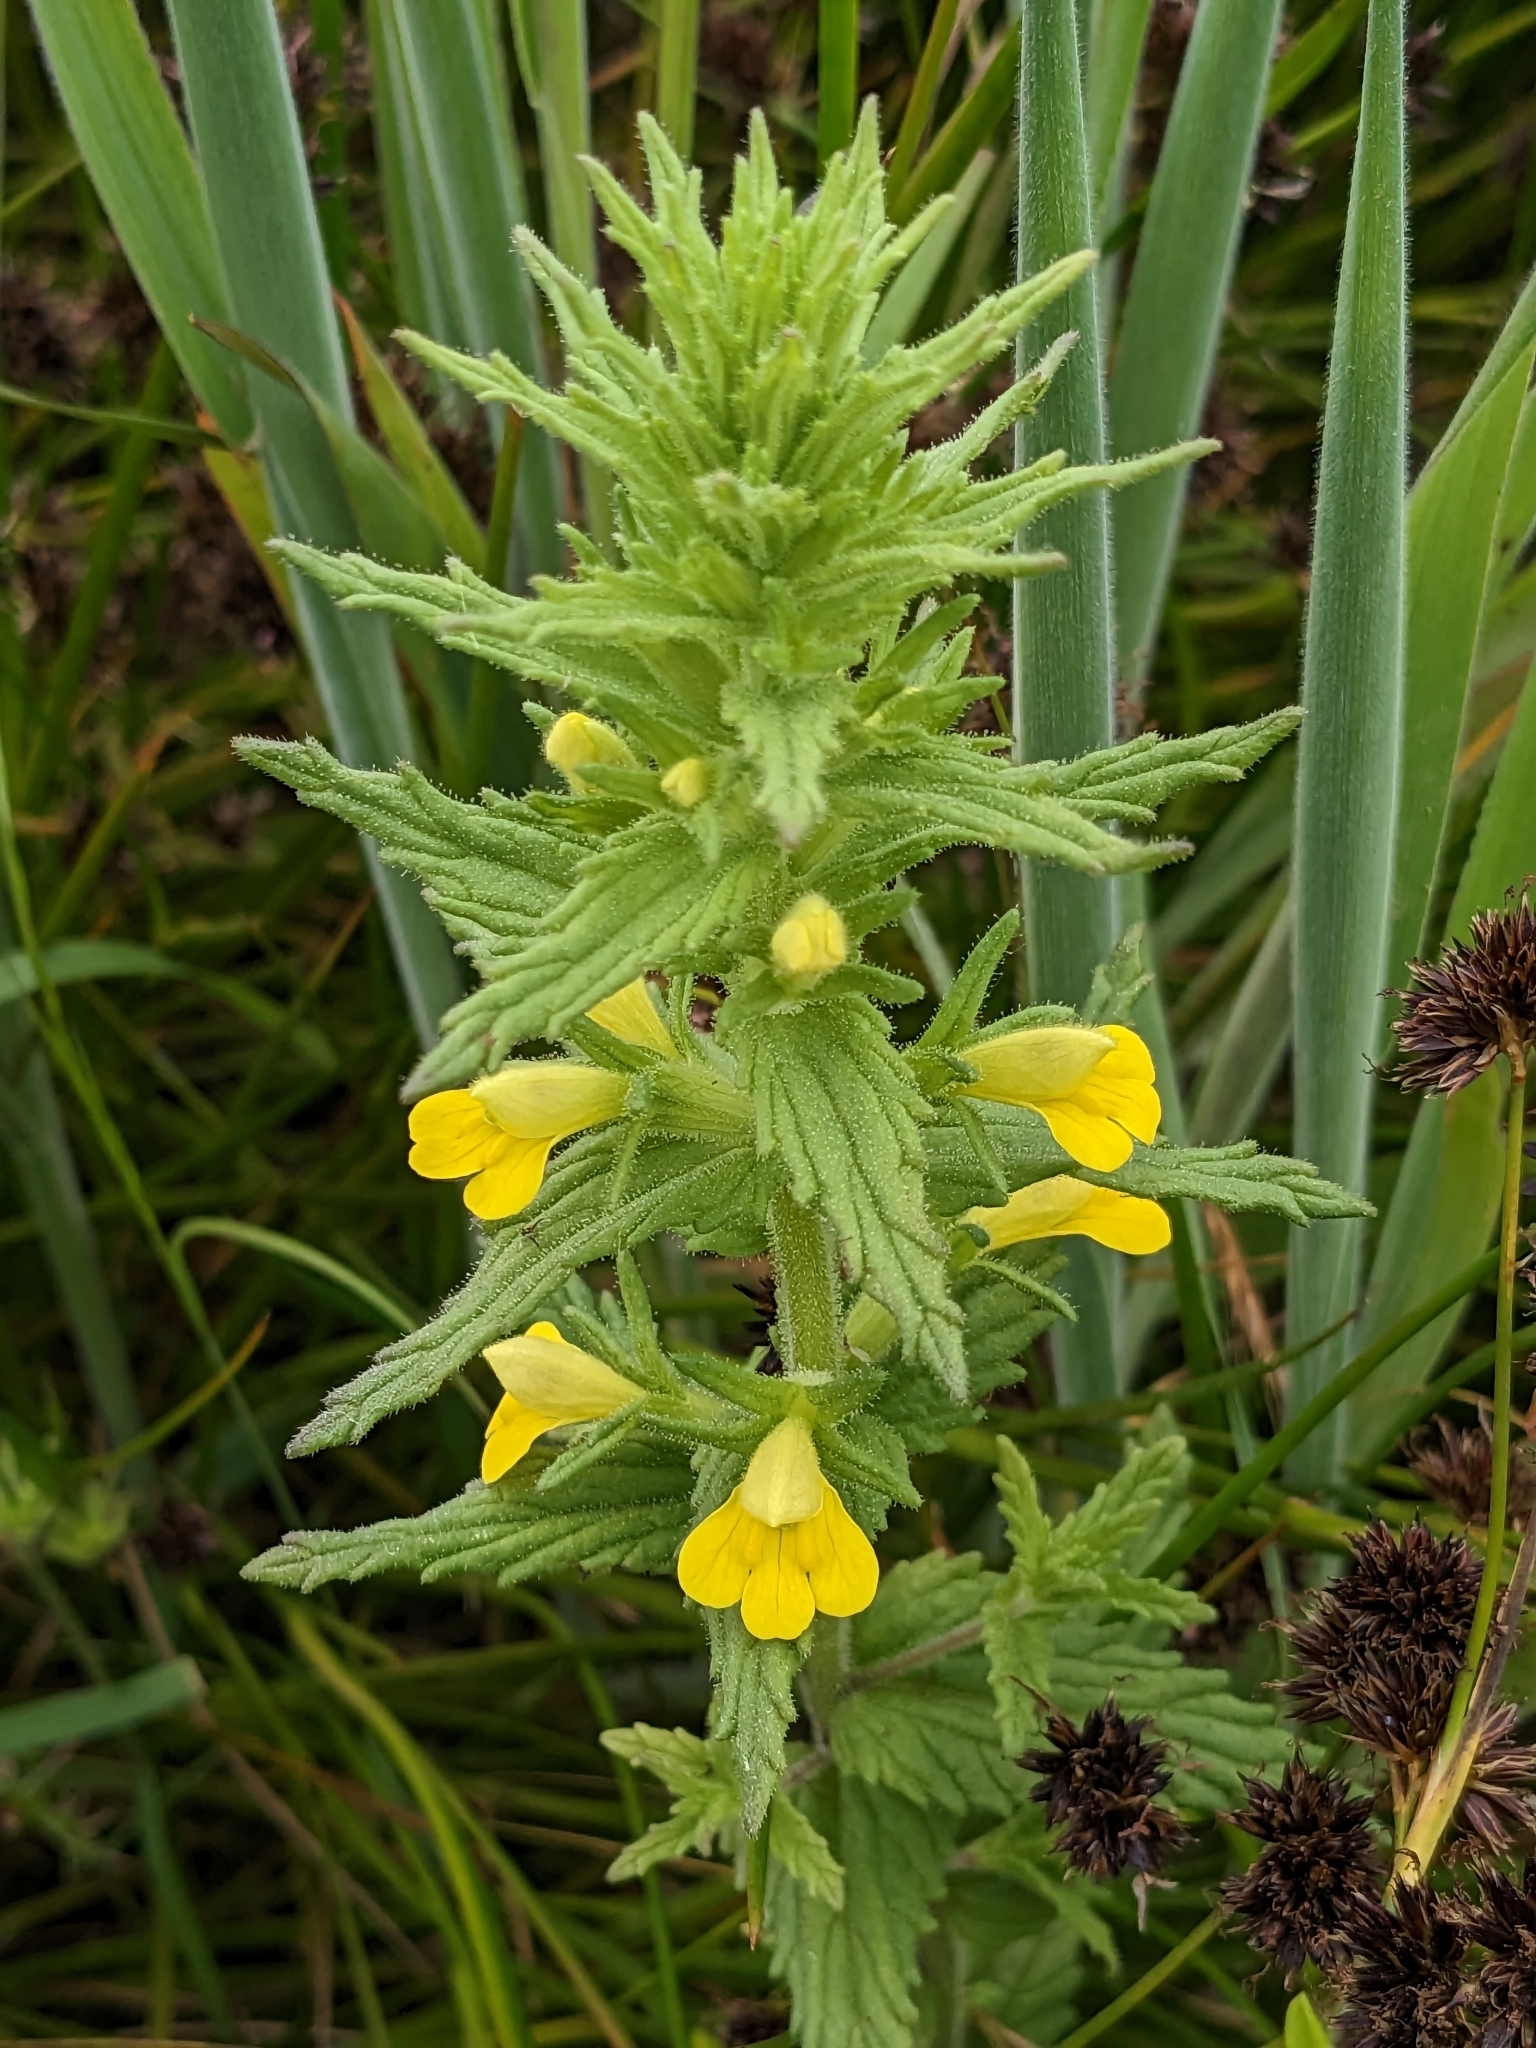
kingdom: Plantae
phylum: Tracheophyta
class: Magnoliopsida
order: Lamiales
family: Orobanchaceae
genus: Bellardia
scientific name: Bellardia viscosa
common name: Sticky parentucellia
